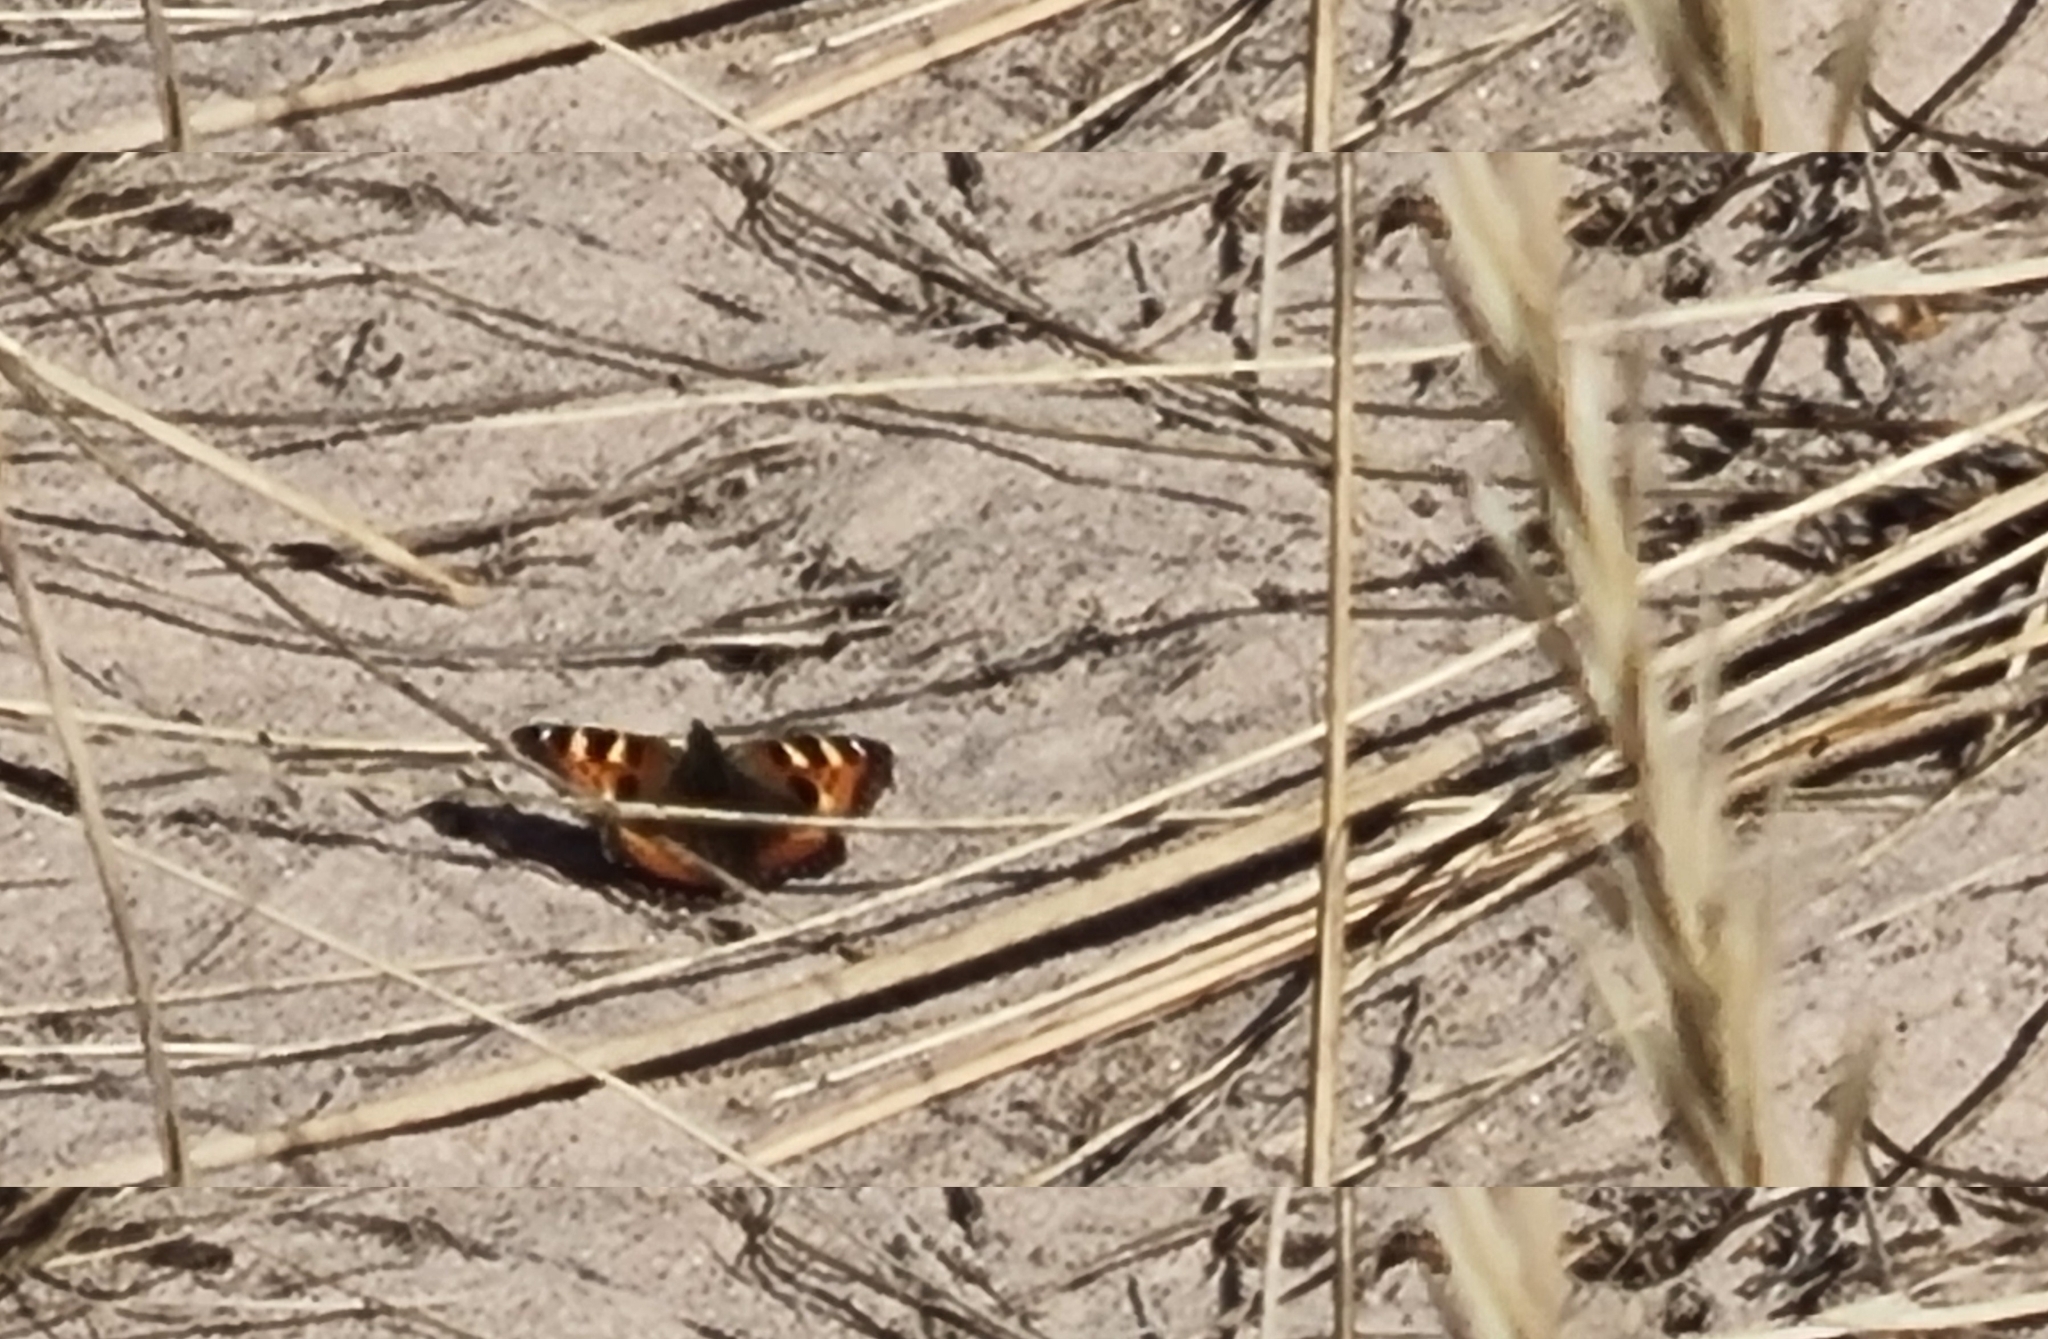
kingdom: Animalia
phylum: Arthropoda
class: Insecta
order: Lepidoptera
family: Nymphalidae
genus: Aglais
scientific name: Aglais urticae
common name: Small tortoiseshell
